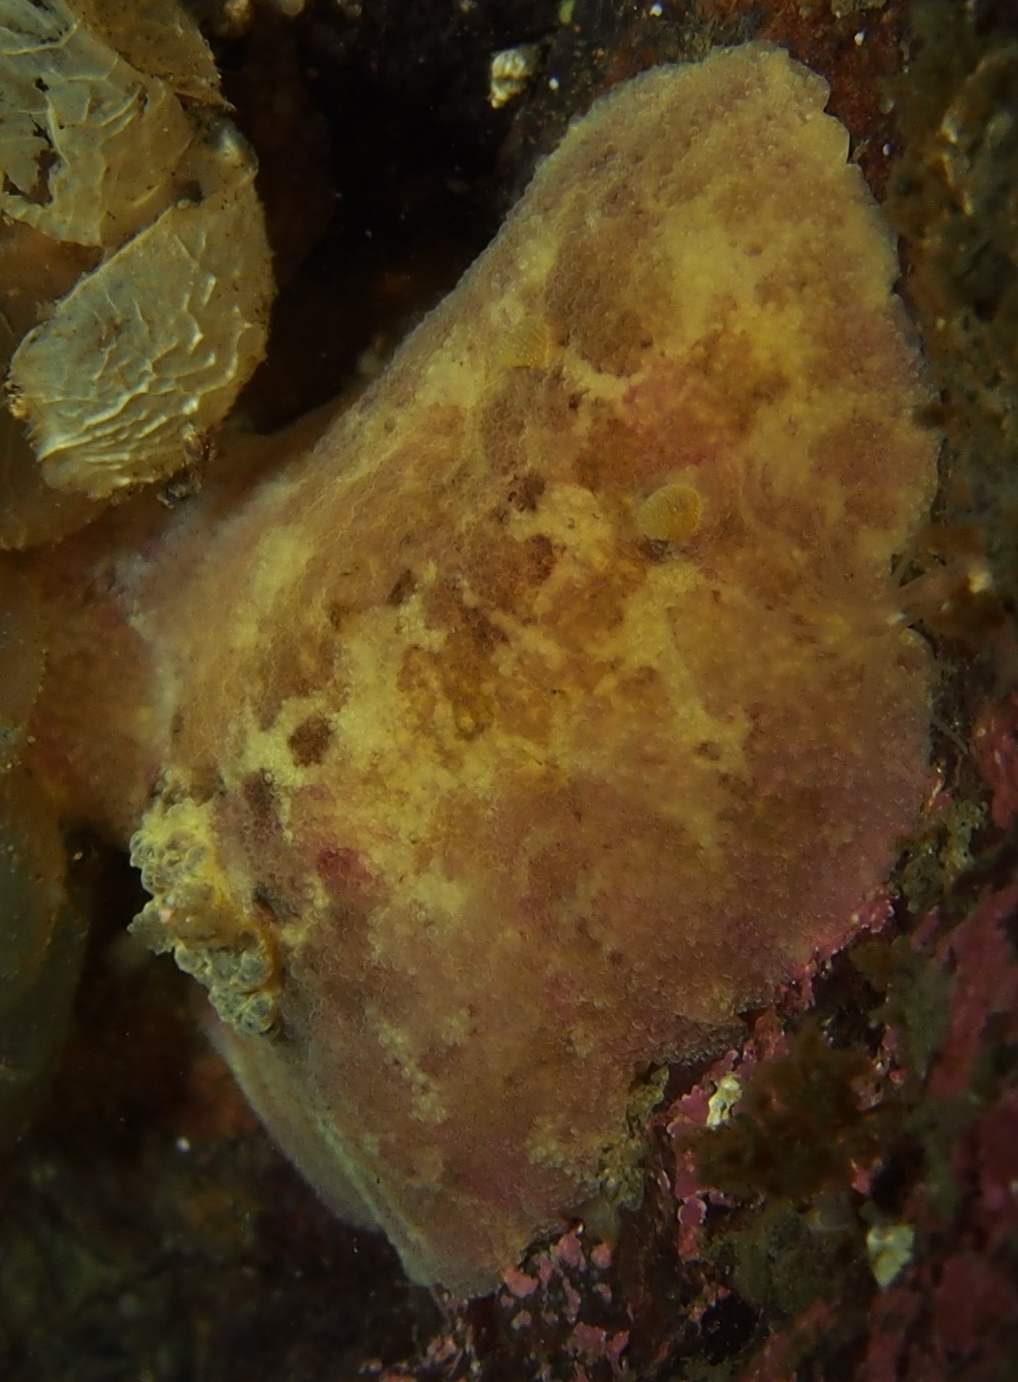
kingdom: Animalia
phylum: Mollusca
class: Gastropoda
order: Nudibranchia
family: Dorididae
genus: Doris
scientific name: Doris pseudoargus
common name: Sea lemon
